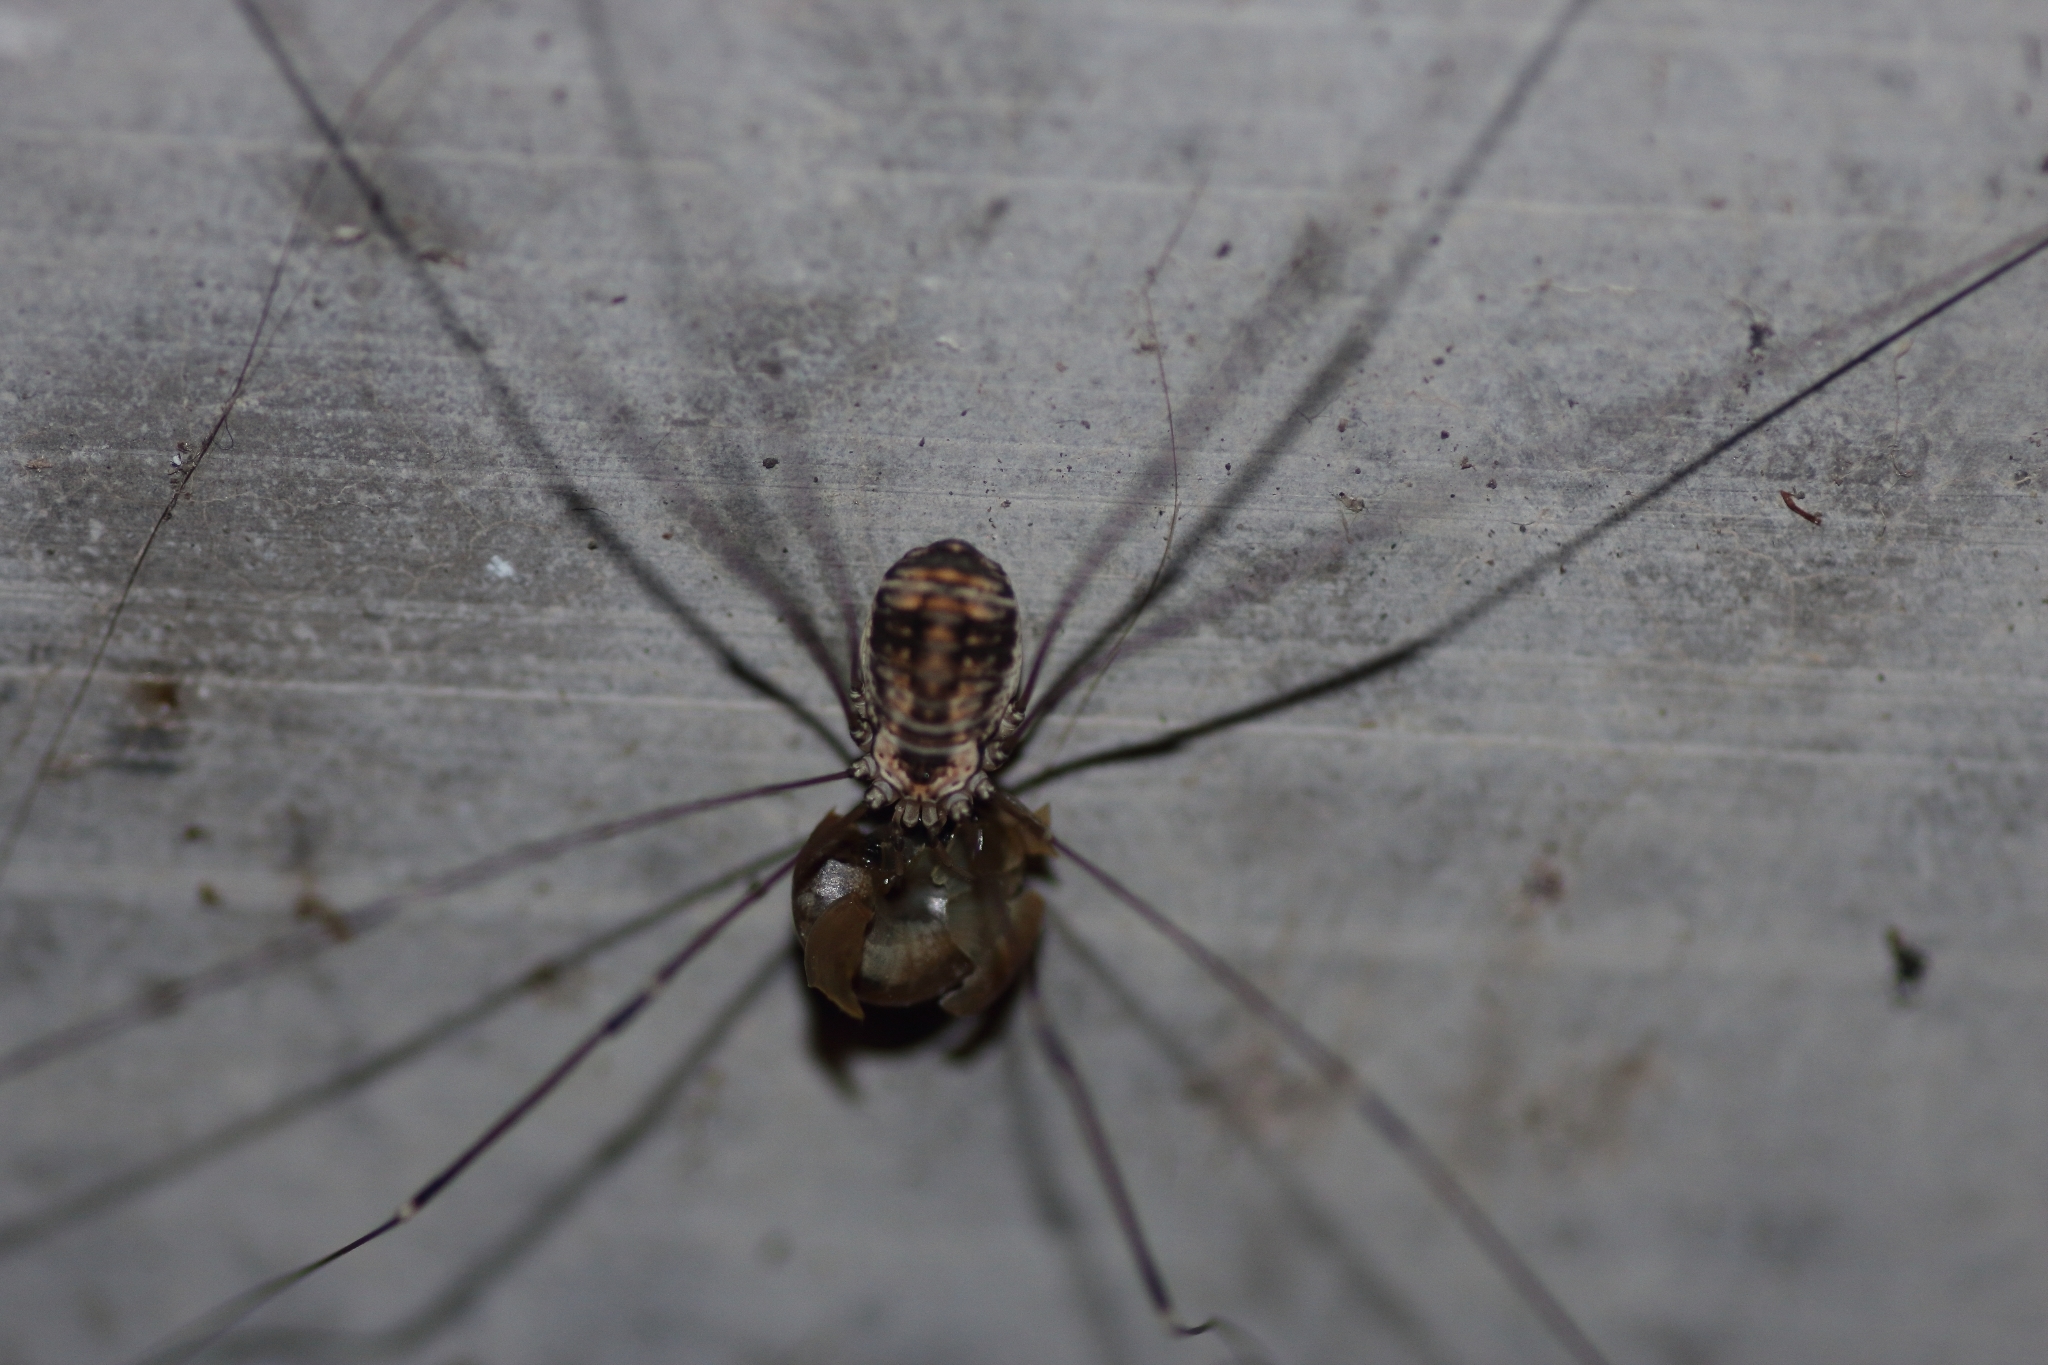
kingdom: Animalia
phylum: Arthropoda
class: Arachnida
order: Opiliones
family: Sclerosomatidae
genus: Leiobunum
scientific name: Leiobunum limbatum
